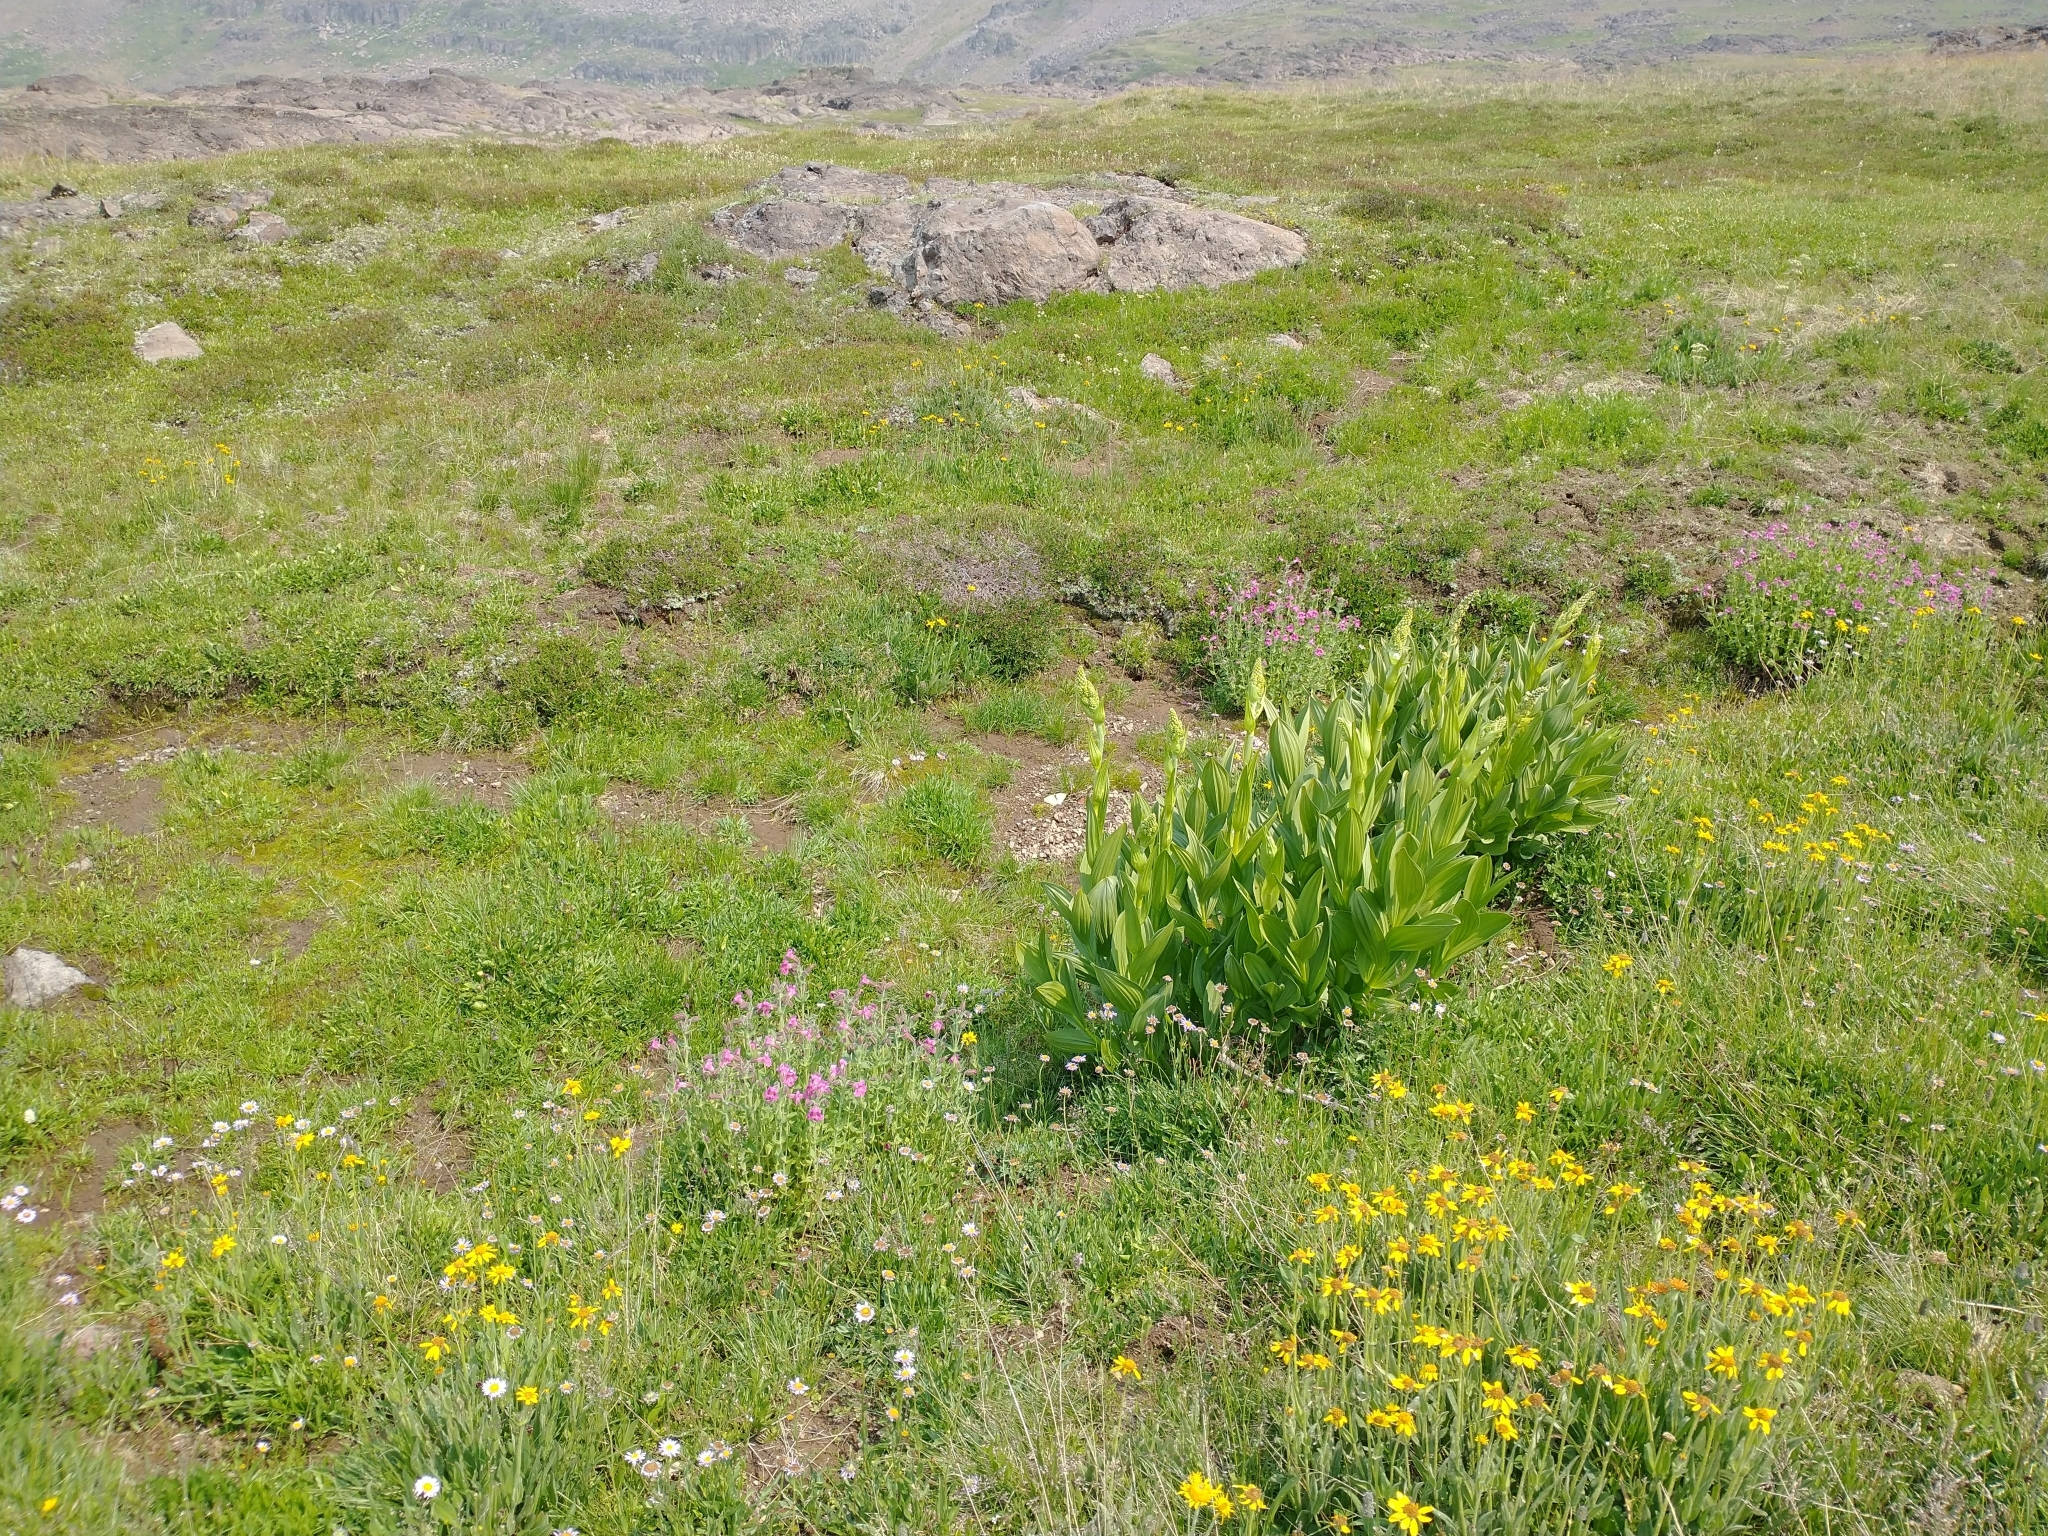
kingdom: Plantae
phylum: Tracheophyta
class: Liliopsida
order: Liliales
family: Melanthiaceae
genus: Veratrum
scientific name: Veratrum californicum
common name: California veratrum
